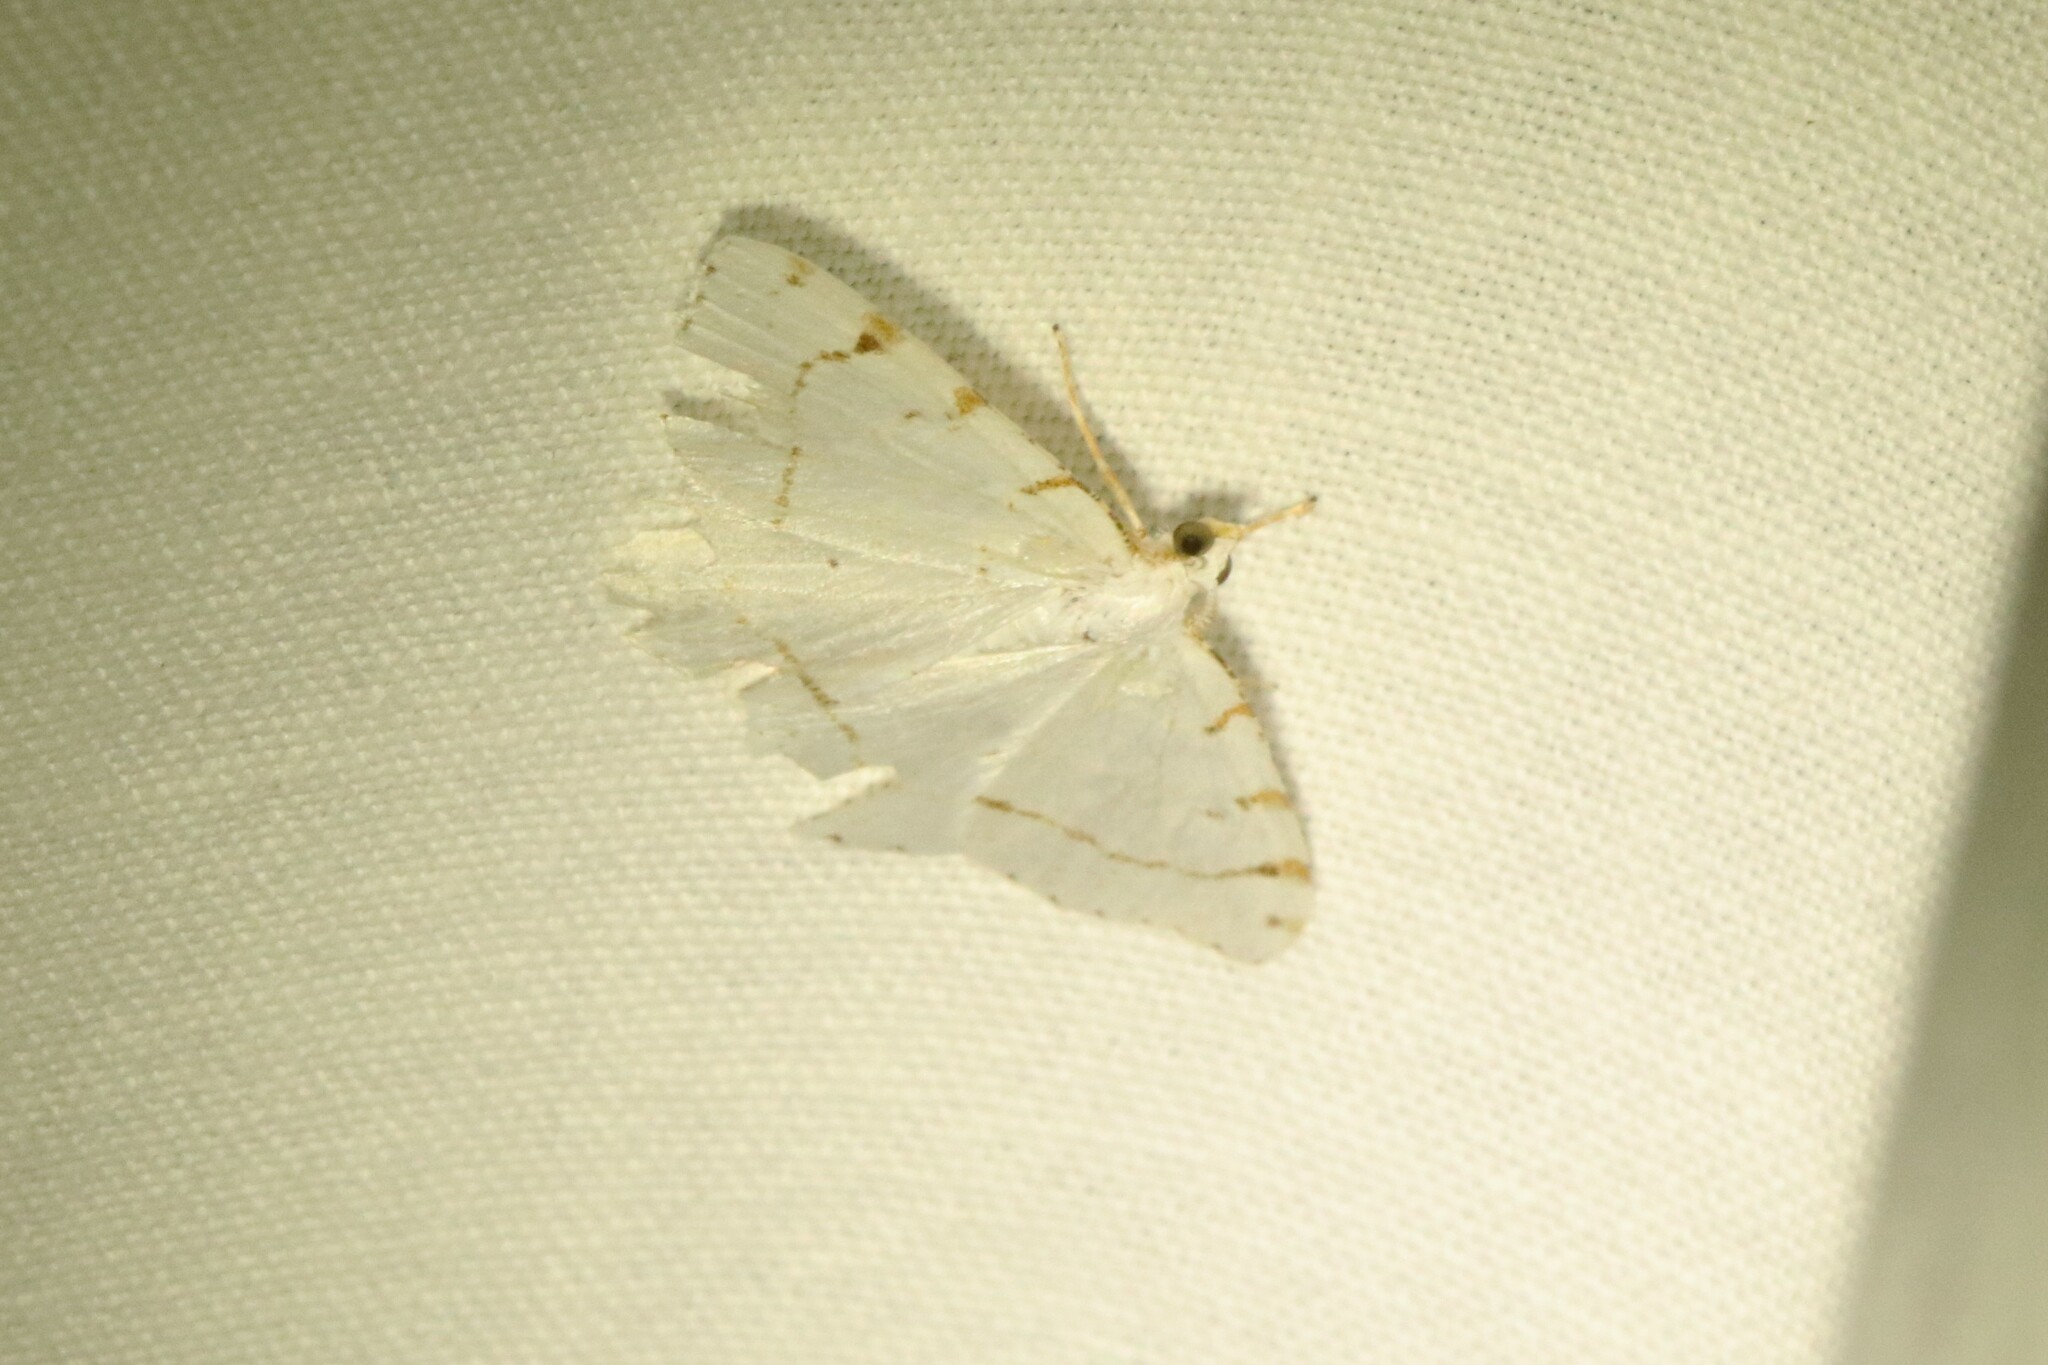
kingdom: Animalia
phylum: Arthropoda
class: Insecta
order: Lepidoptera
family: Geometridae
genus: Macaria
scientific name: Macaria pustularia
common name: Lesser maple spanworm moth
